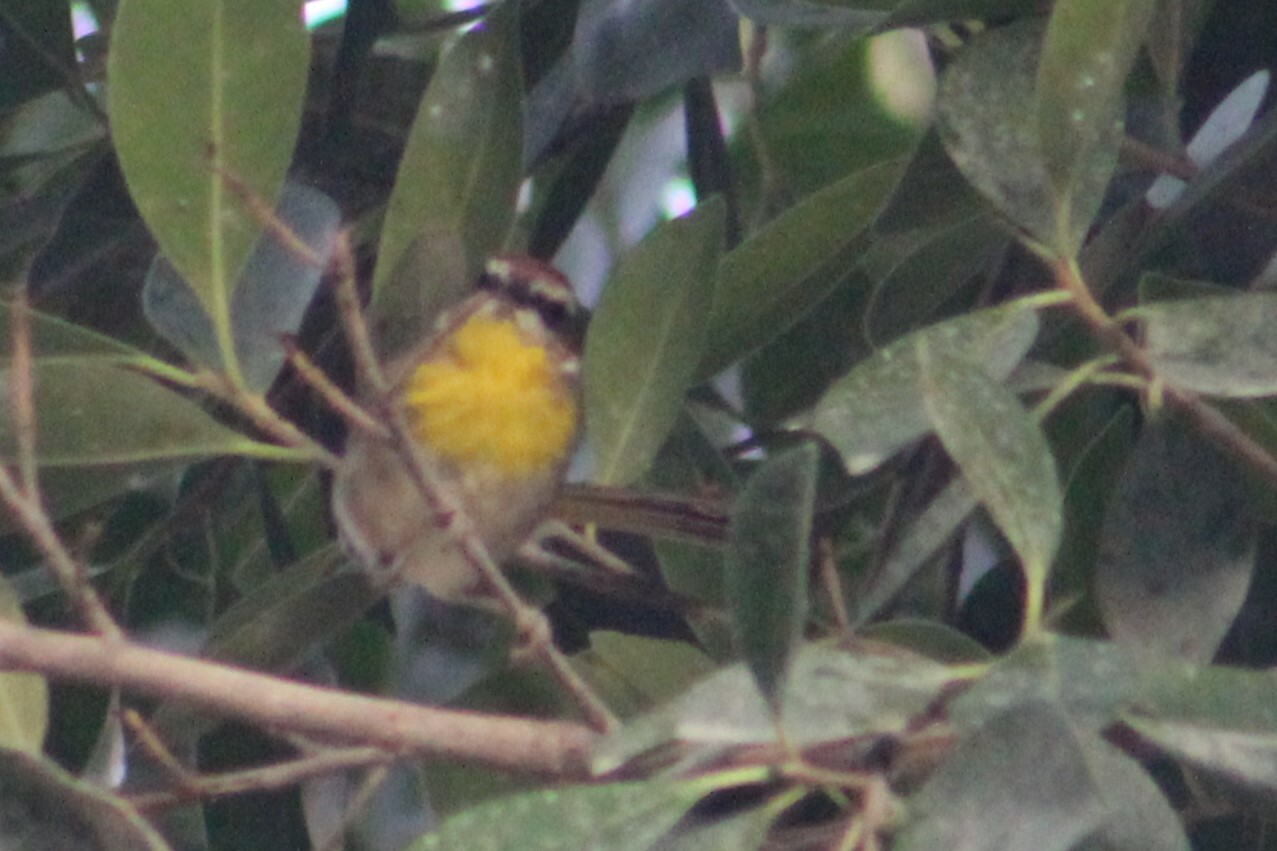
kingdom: Animalia
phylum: Chordata
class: Aves
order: Passeriformes
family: Parulidae
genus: Basileuterus
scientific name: Basileuterus rufifrons
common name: Rufous-capped warbler
